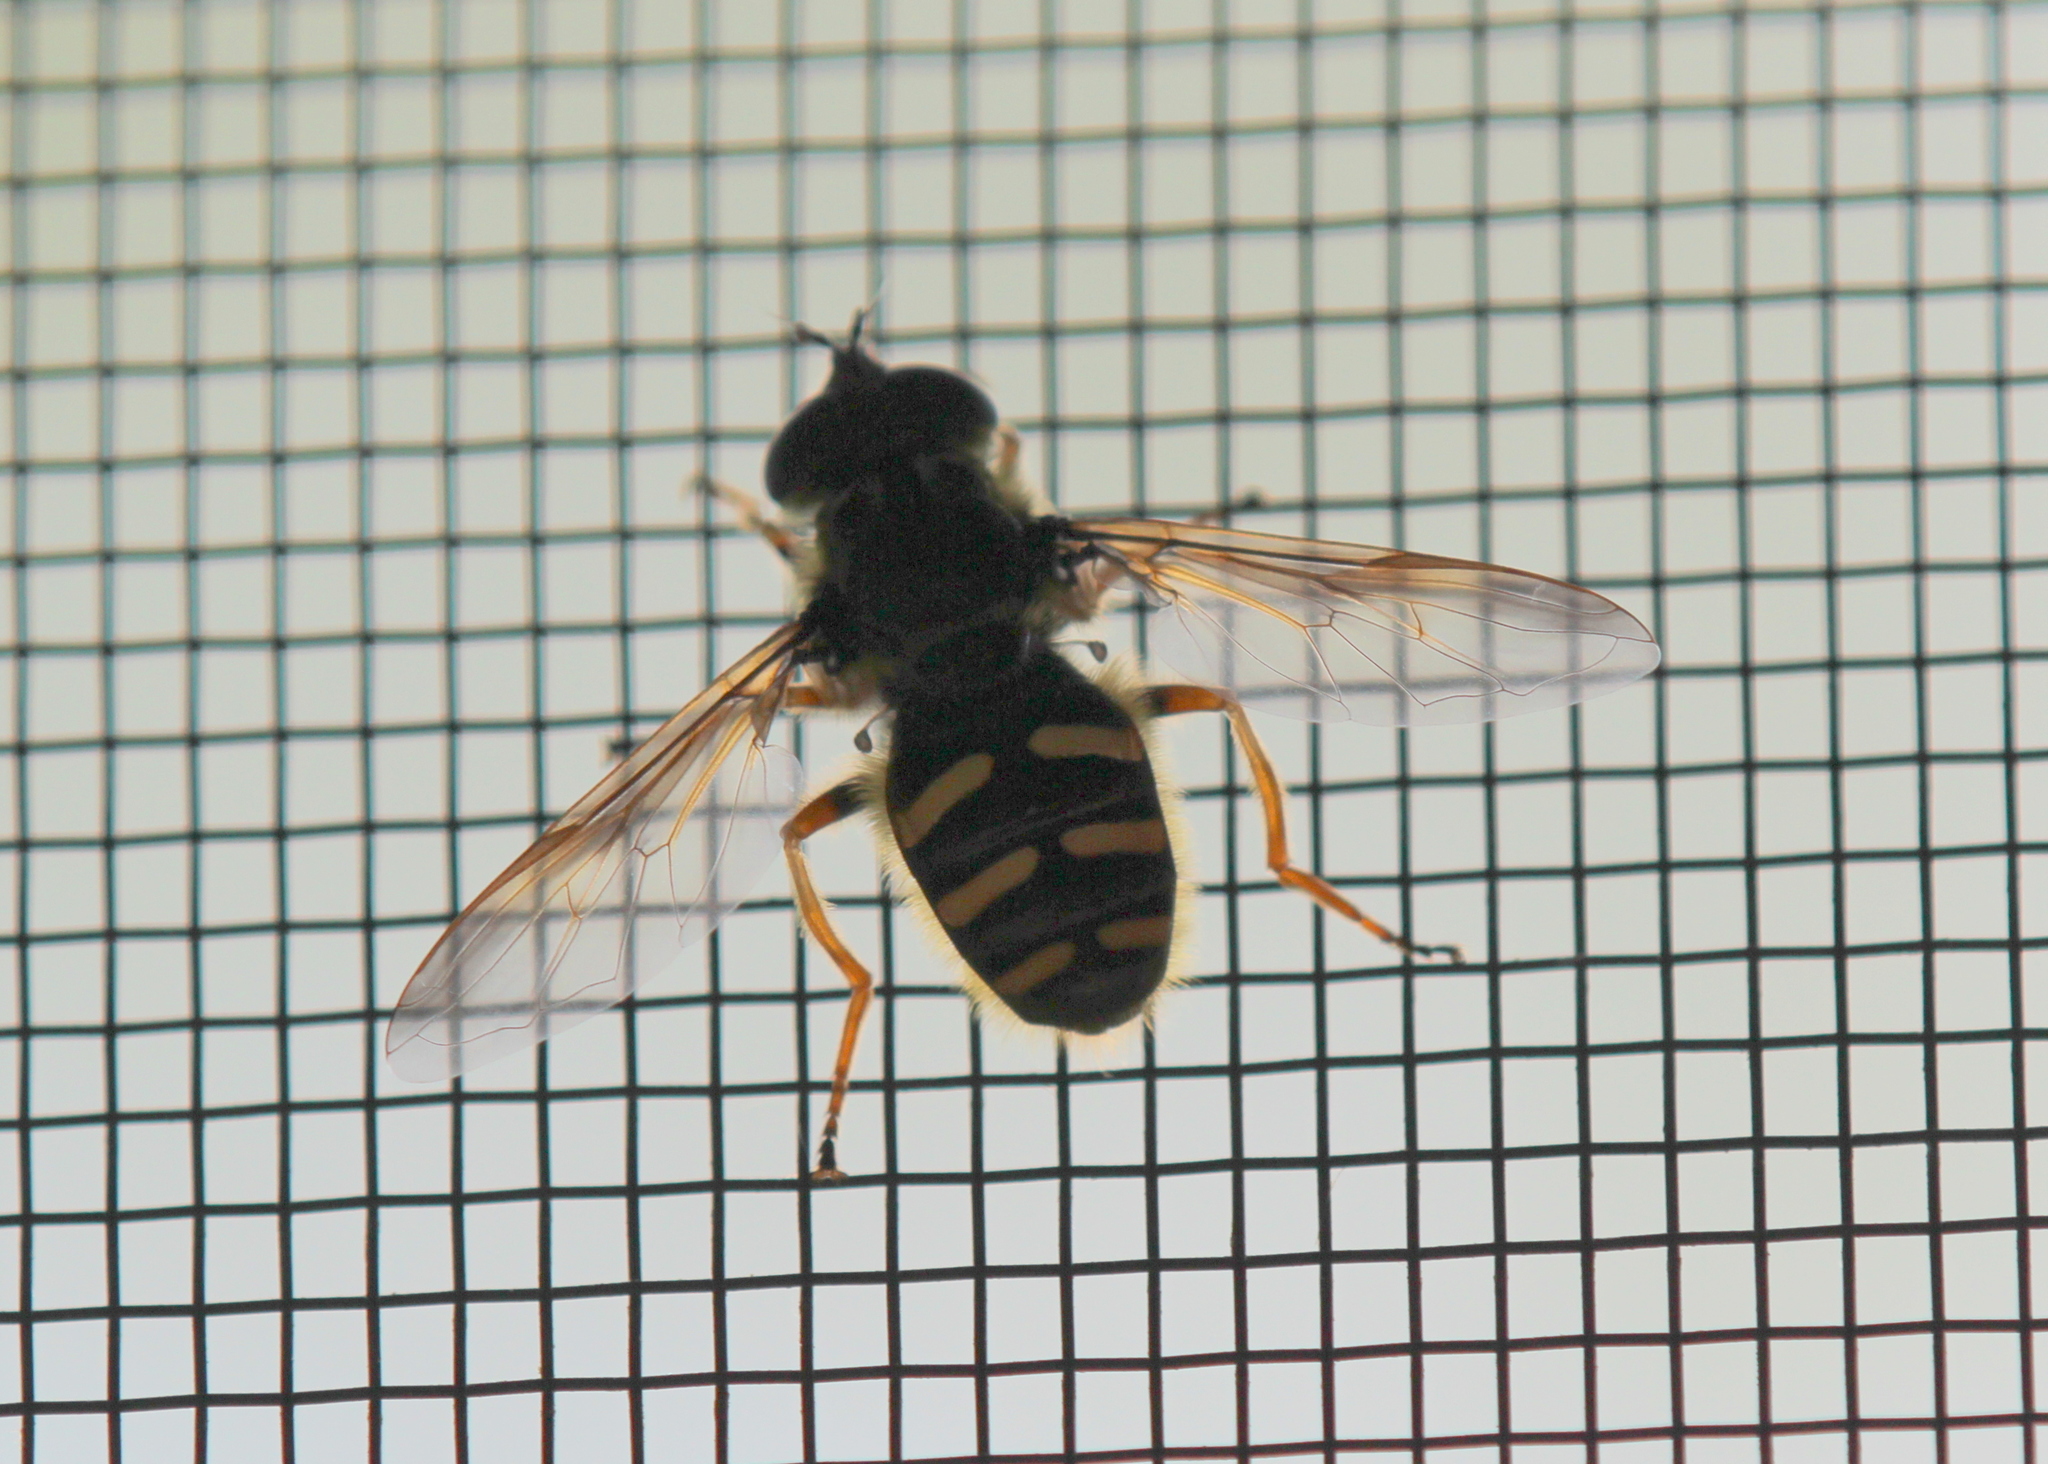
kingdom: Animalia
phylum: Arthropoda
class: Insecta
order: Diptera
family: Syrphidae
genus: Sericomyia
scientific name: Sericomyia chrysotoxoides
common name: Oblique-banded pond fly
